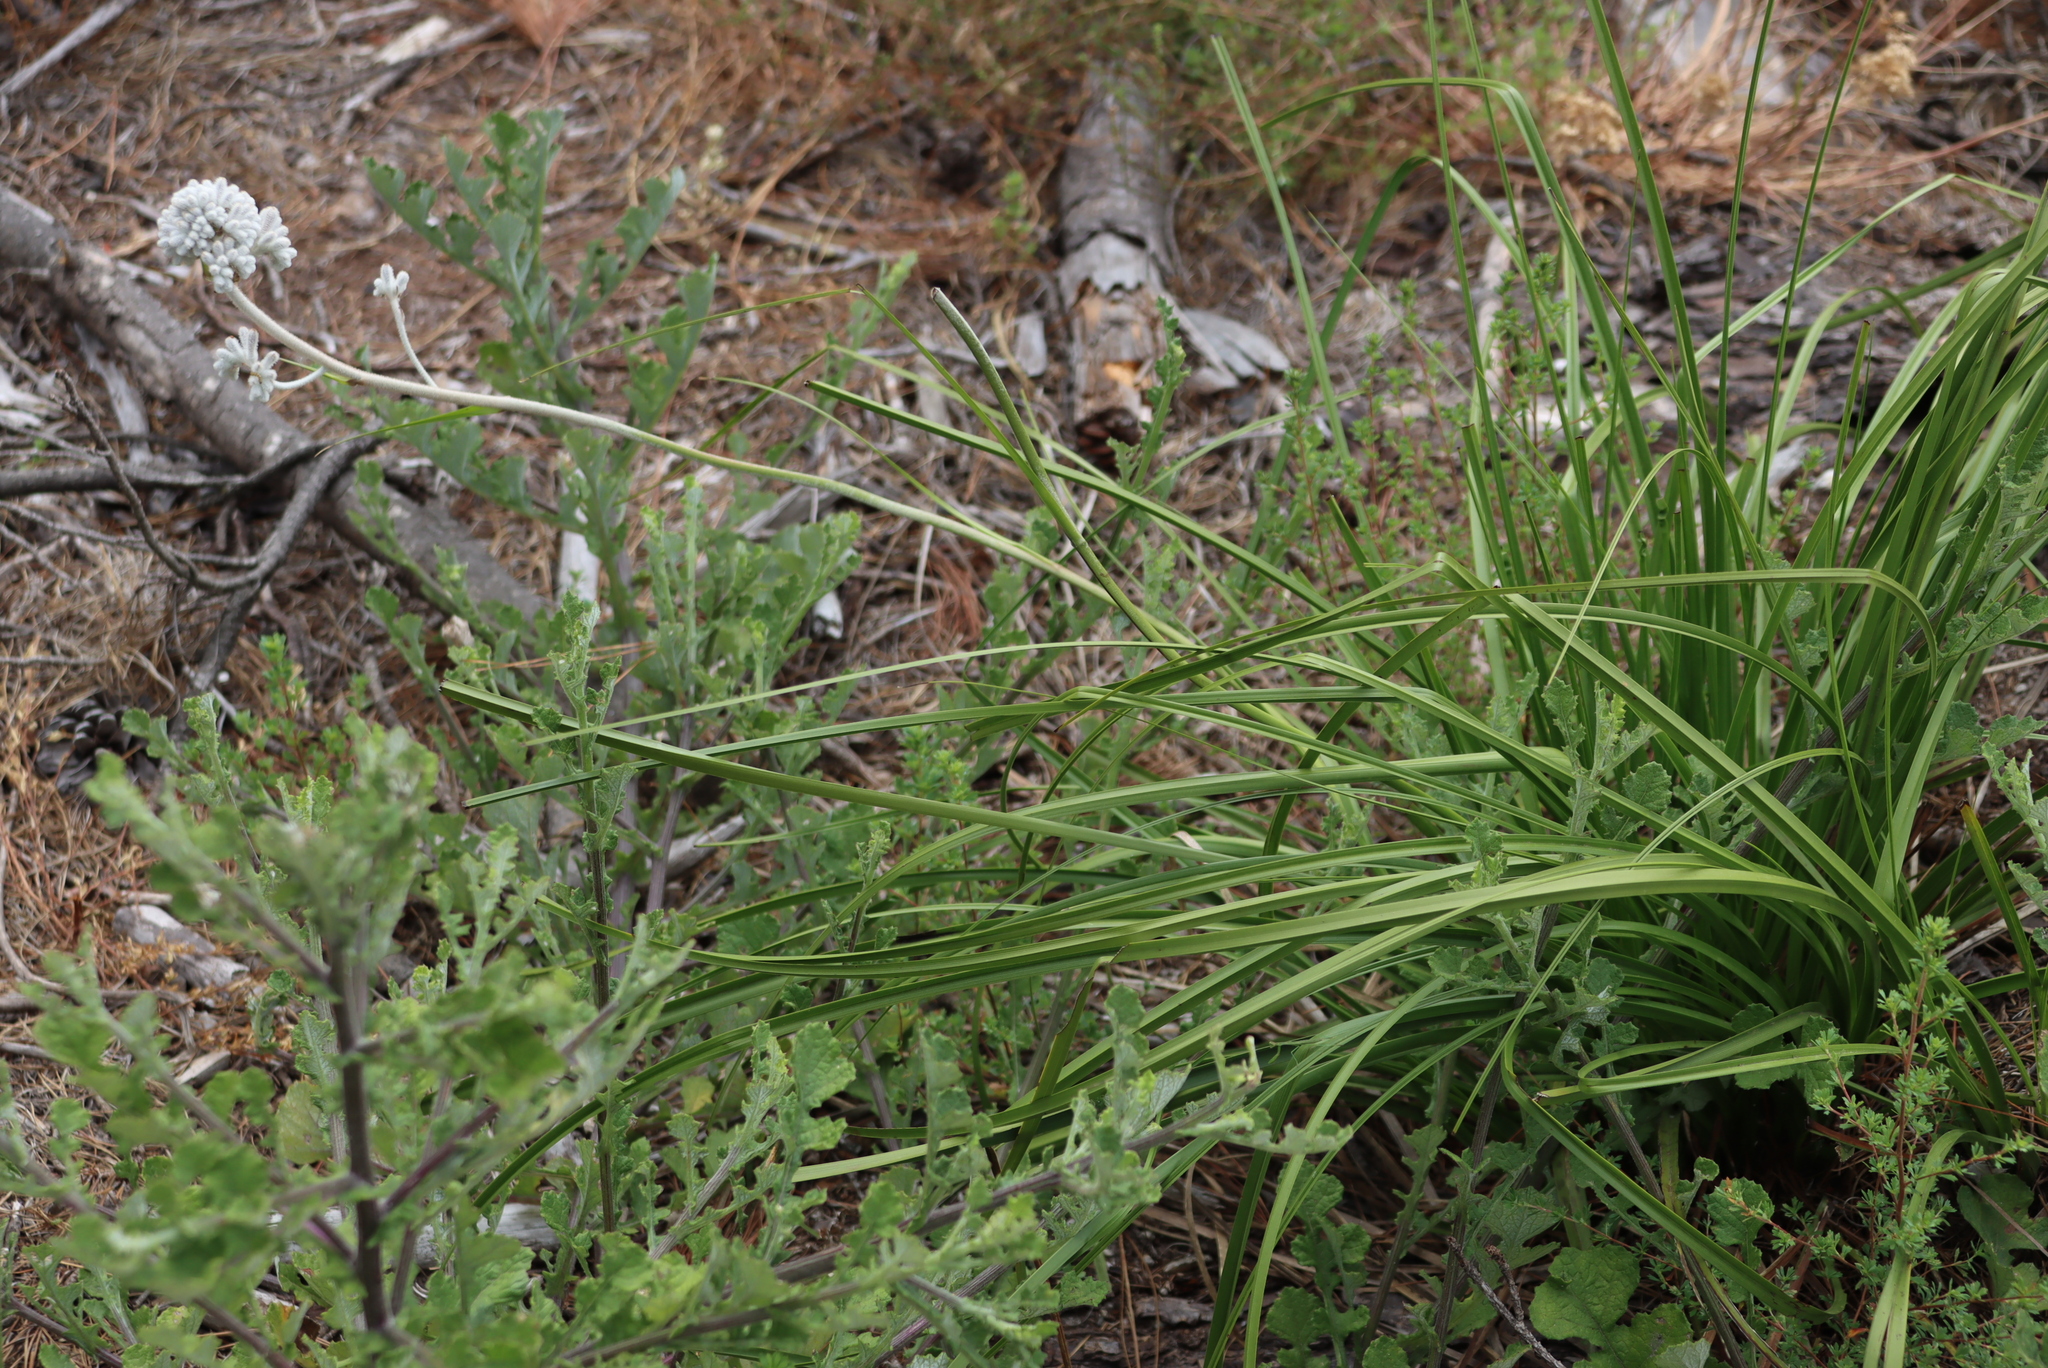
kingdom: Plantae
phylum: Tracheophyta
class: Liliopsida
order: Asparagales
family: Lanariaceae
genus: Lanaria
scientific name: Lanaria lanata
